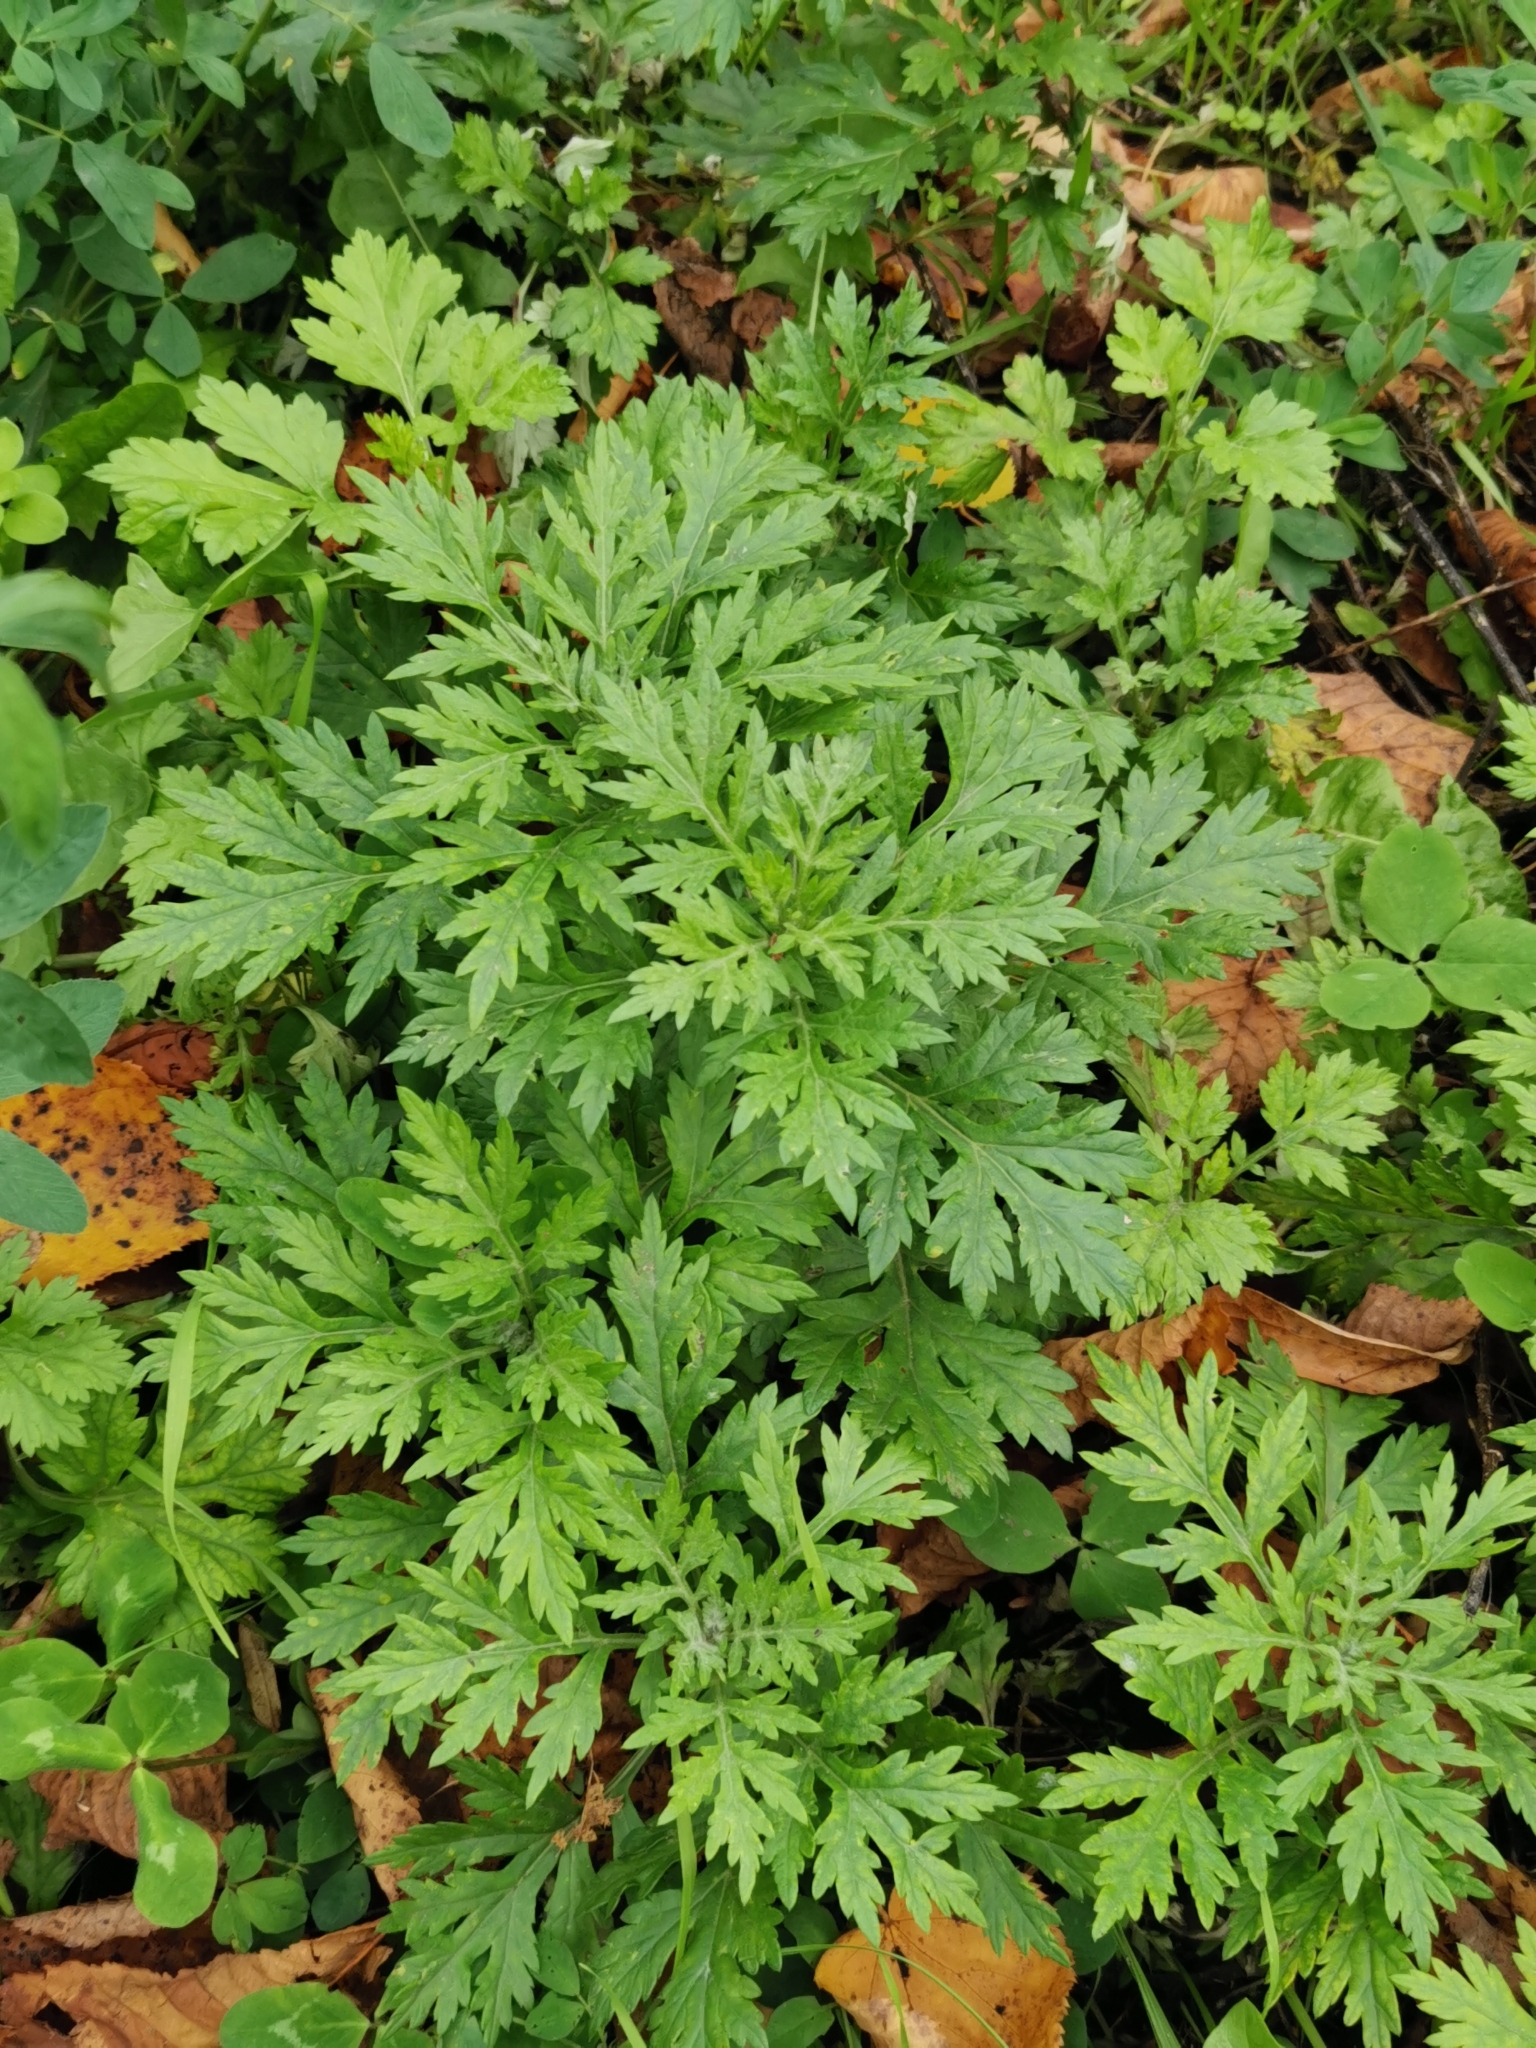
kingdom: Plantae
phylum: Tracheophyta
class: Magnoliopsida
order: Asterales
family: Asteraceae
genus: Artemisia
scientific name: Artemisia vulgaris
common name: Mugwort
